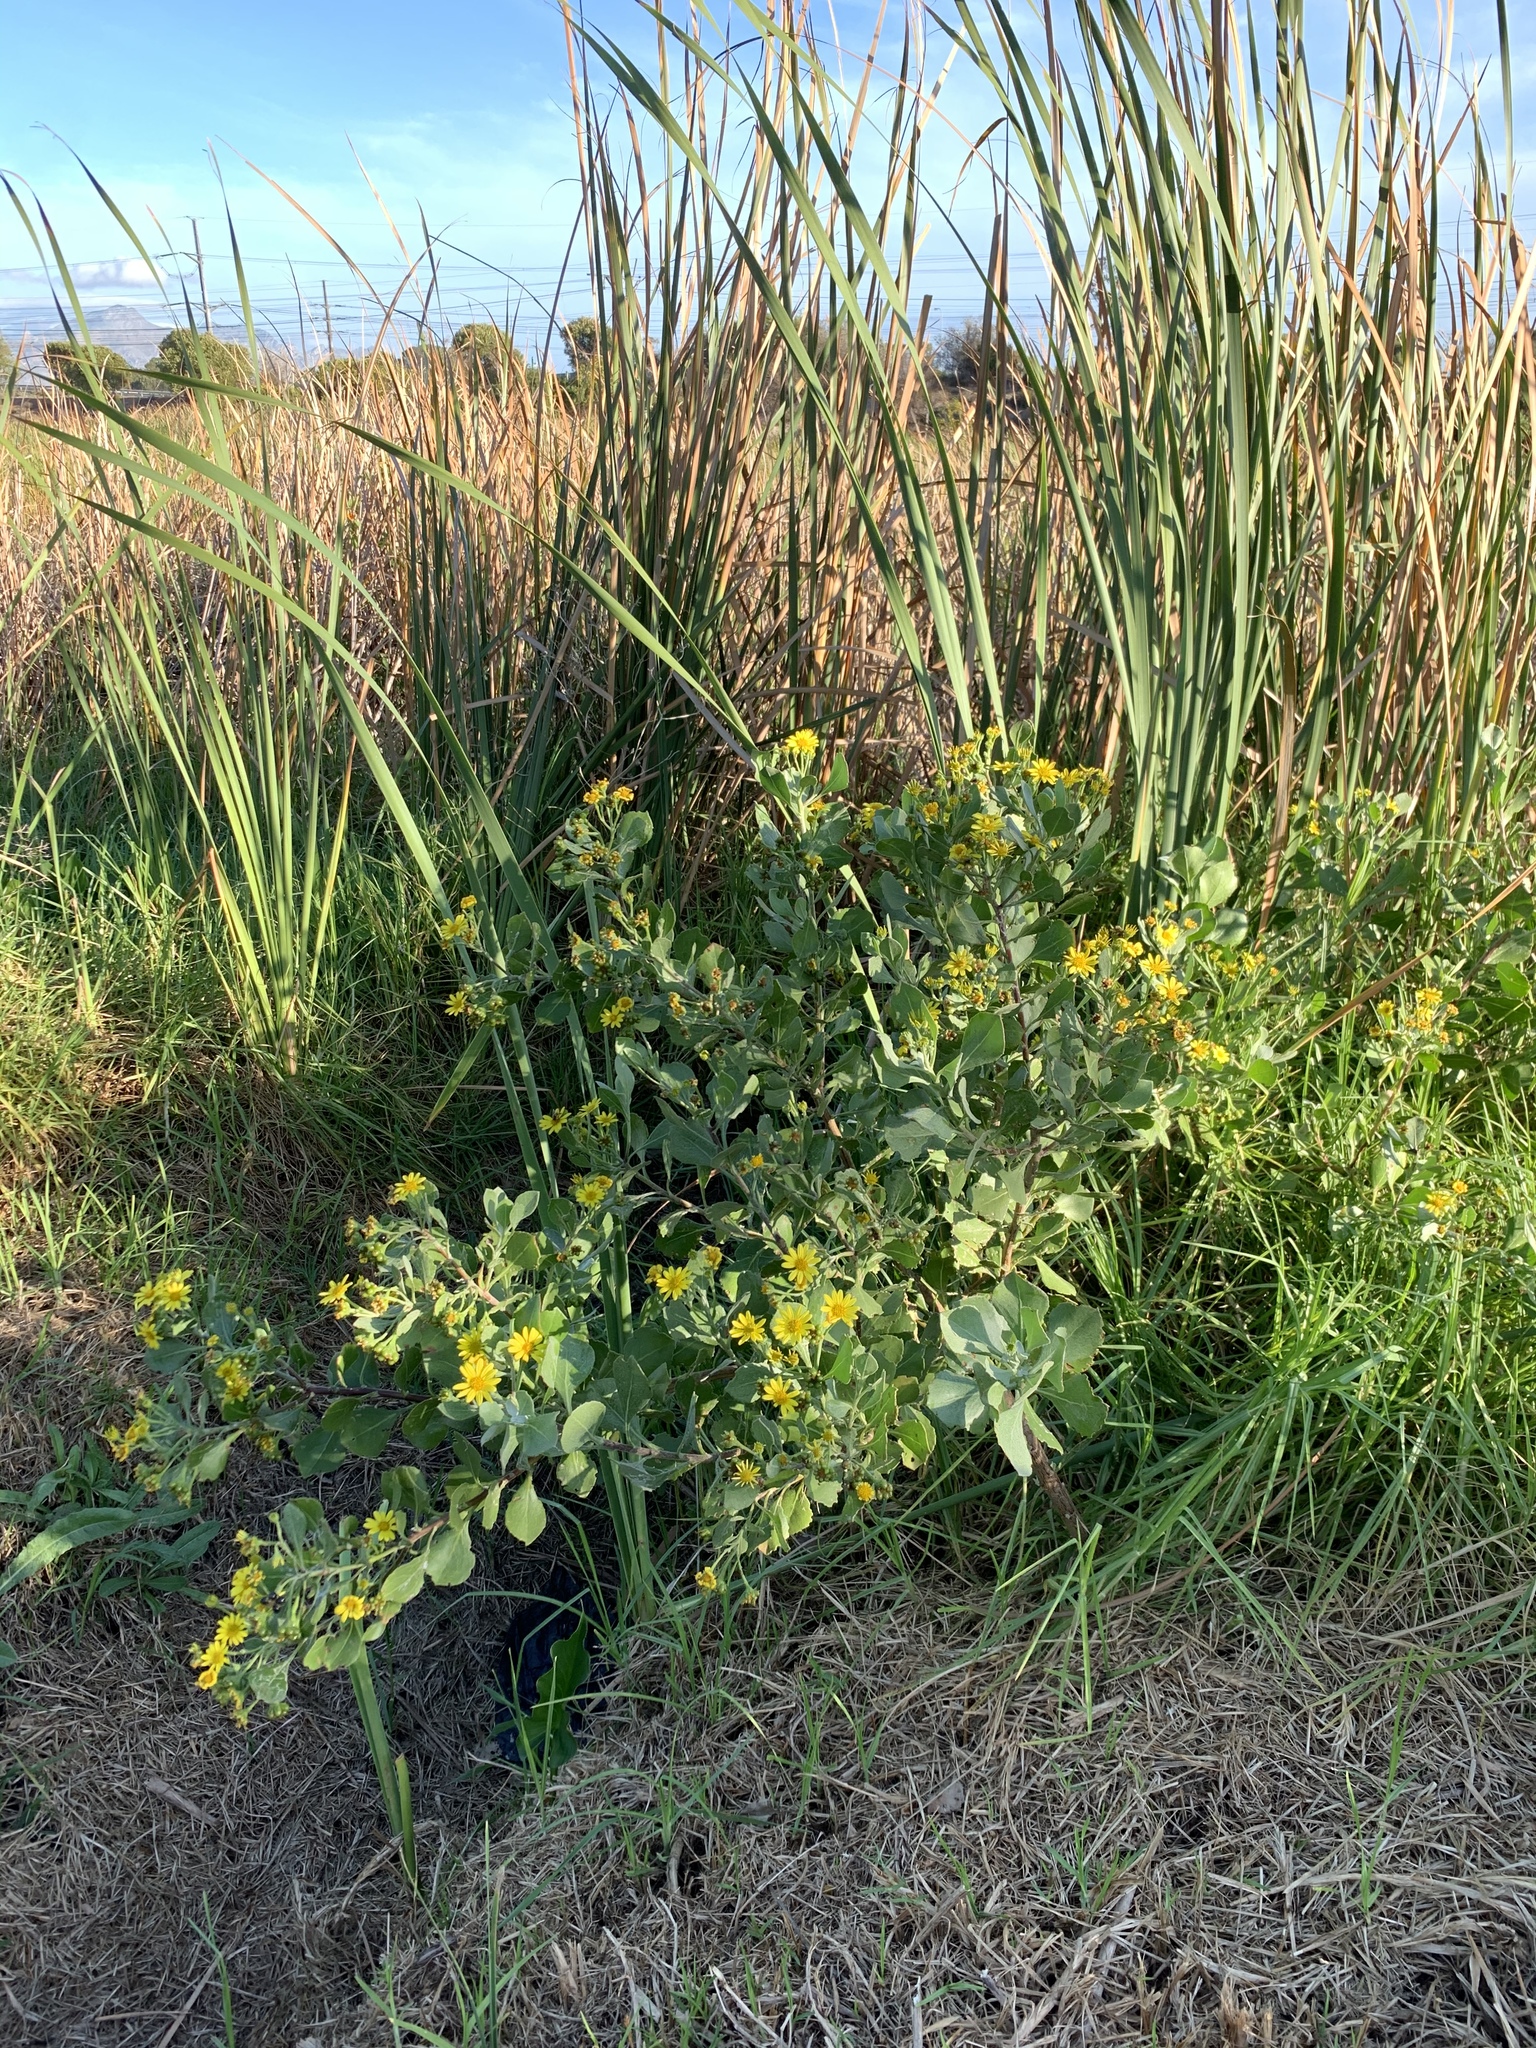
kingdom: Plantae
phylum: Tracheophyta
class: Magnoliopsida
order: Asterales
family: Asteraceae
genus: Osteospermum
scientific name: Osteospermum moniliferum
